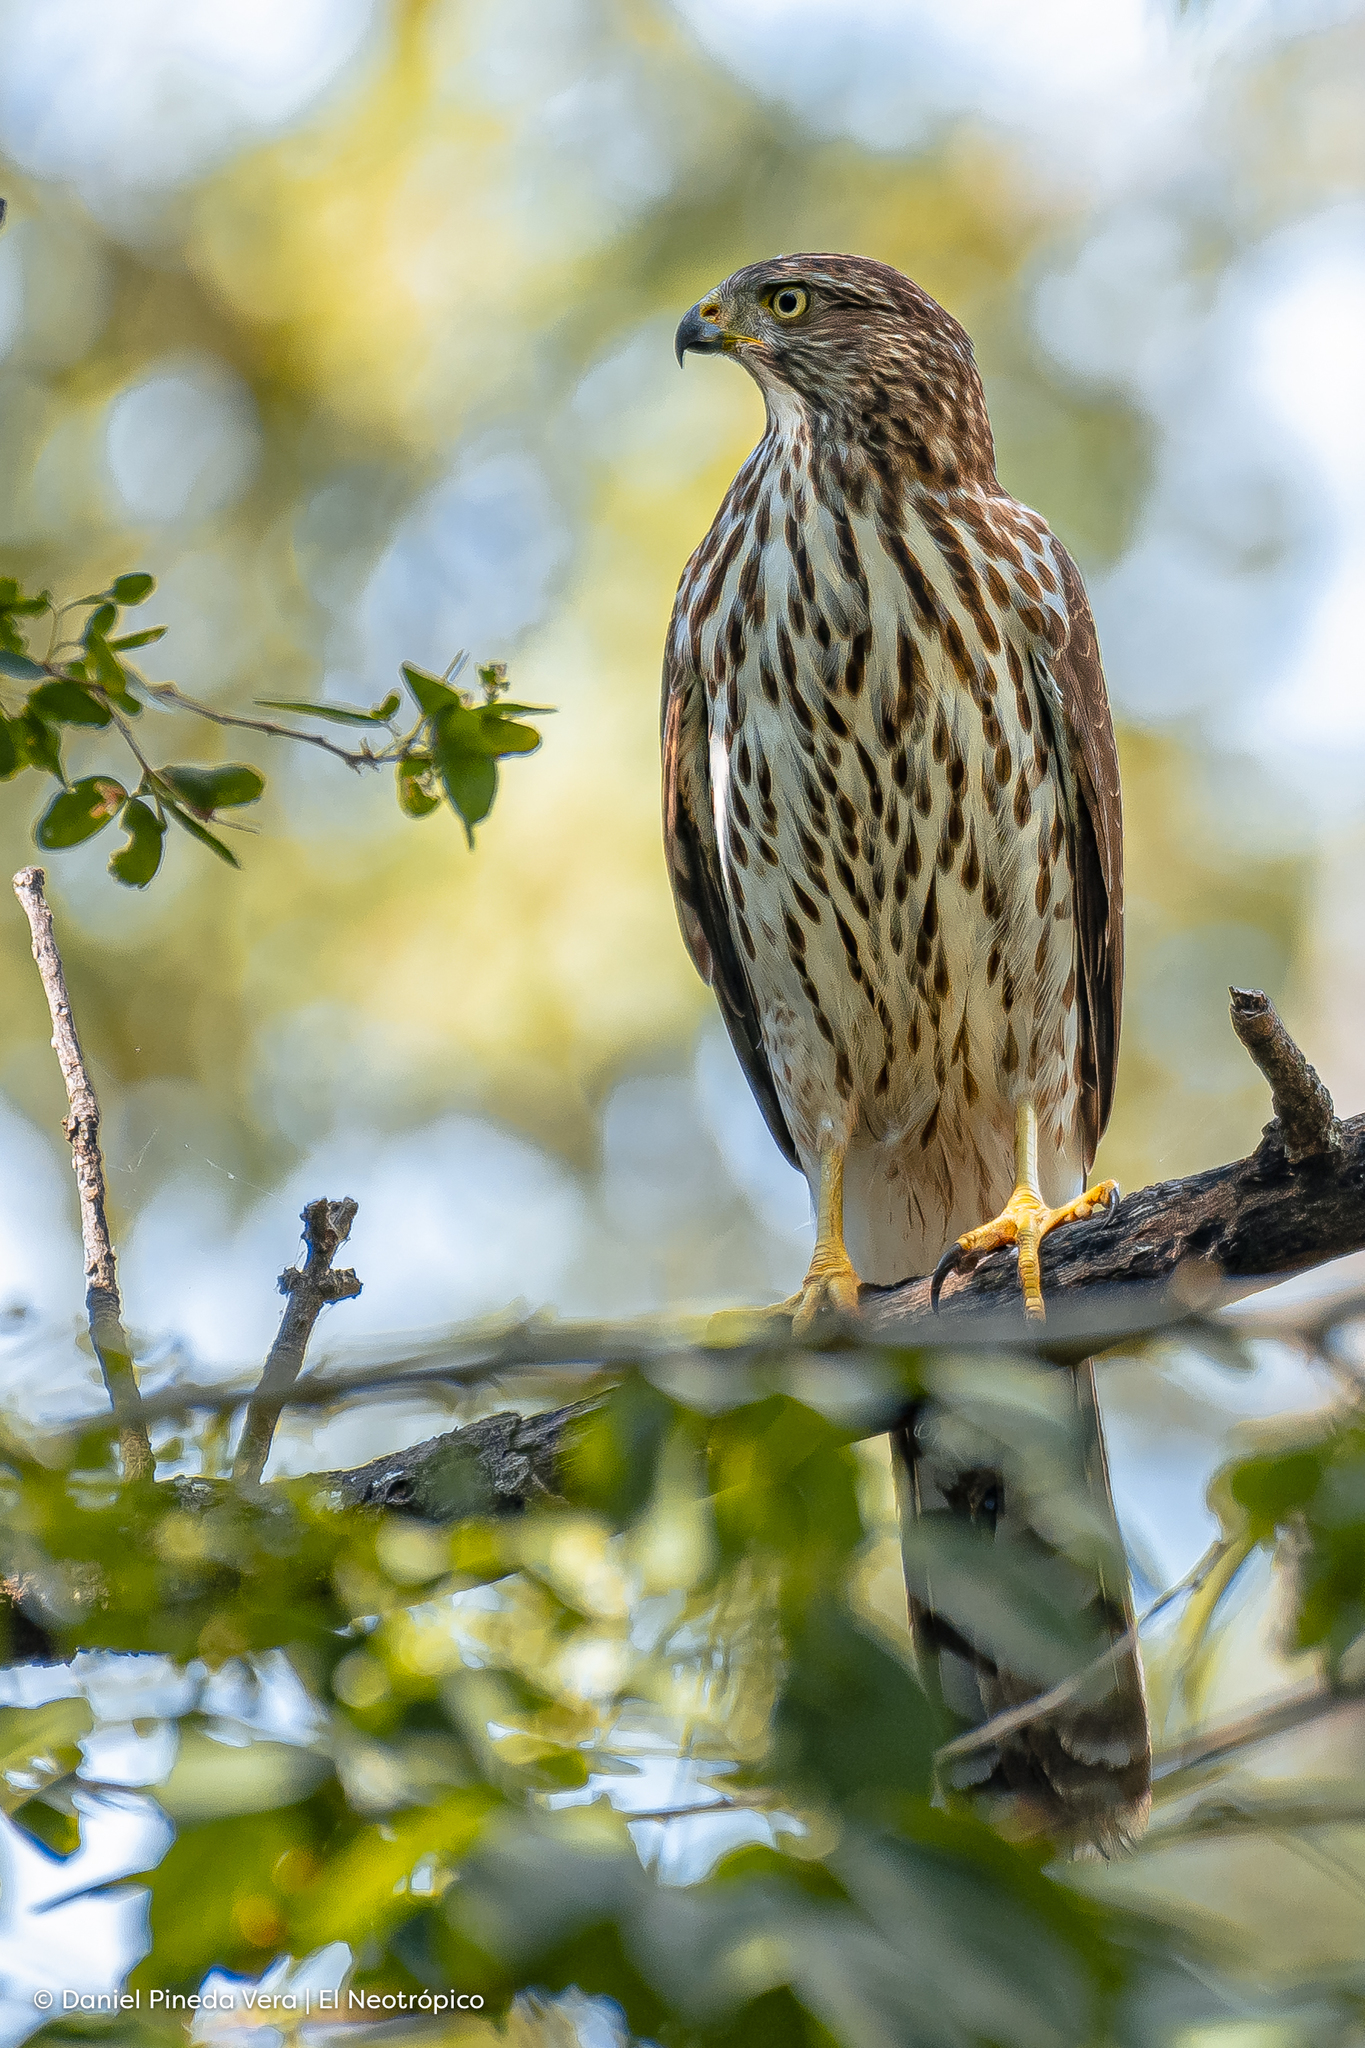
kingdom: Animalia
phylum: Chordata
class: Aves
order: Accipitriformes
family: Accipitridae
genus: Accipiter
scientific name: Accipiter cooperii
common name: Cooper's hawk
